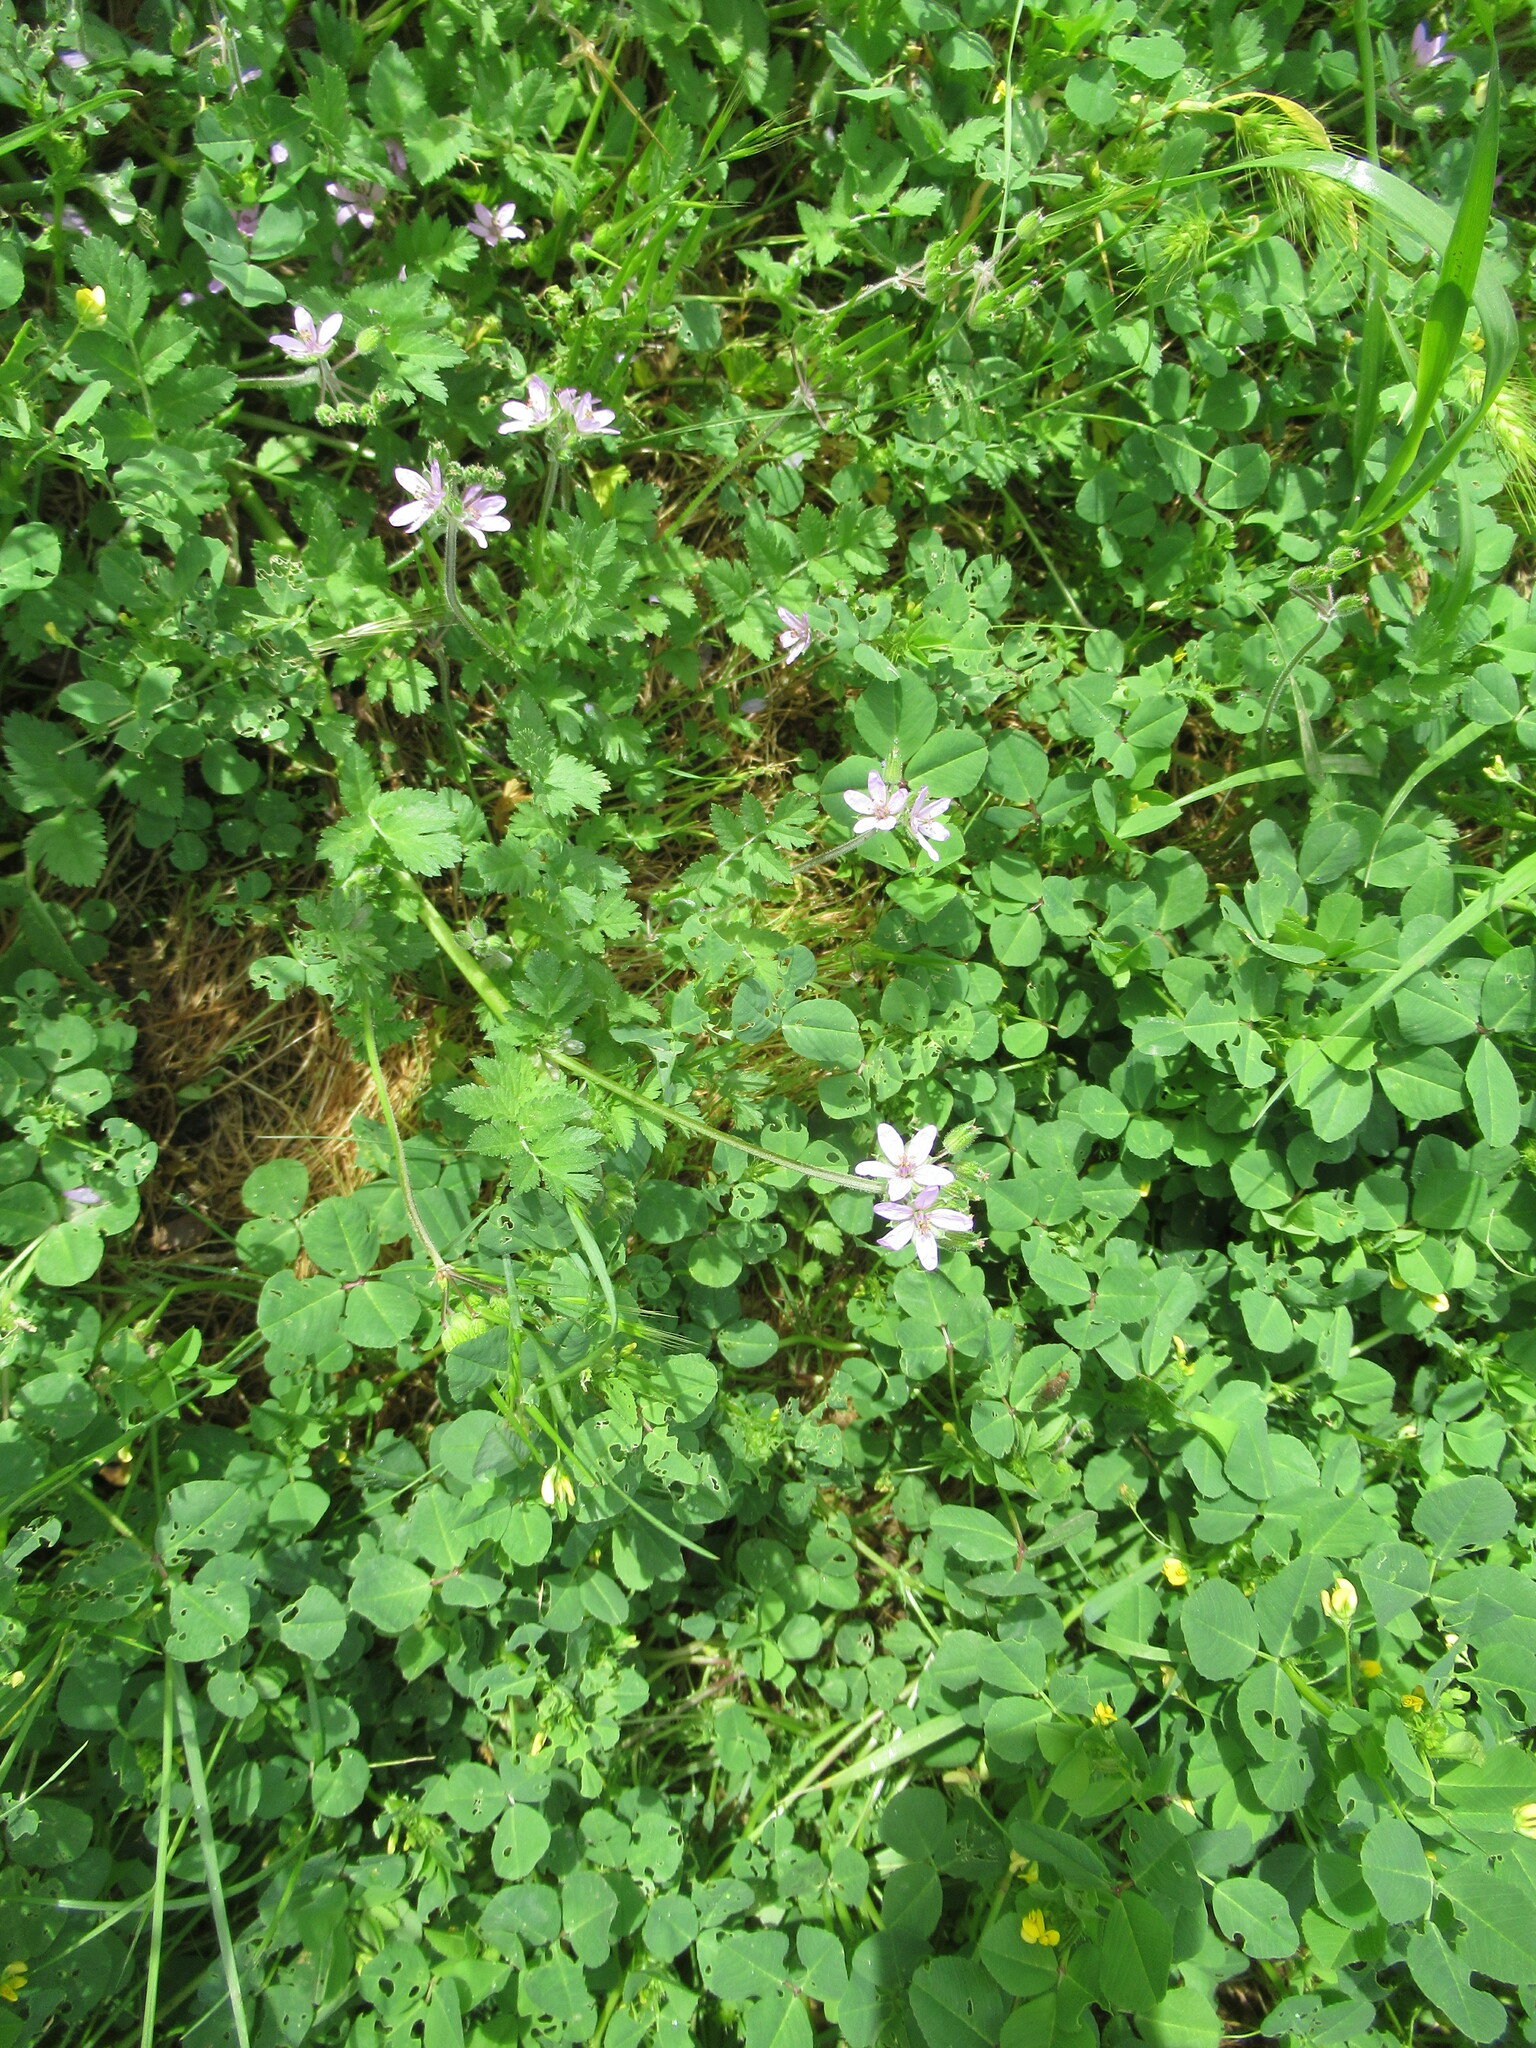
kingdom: Plantae
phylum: Tracheophyta
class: Magnoliopsida
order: Geraniales
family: Geraniaceae
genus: Erodium
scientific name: Erodium moschatum
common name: Musk stork's-bill
